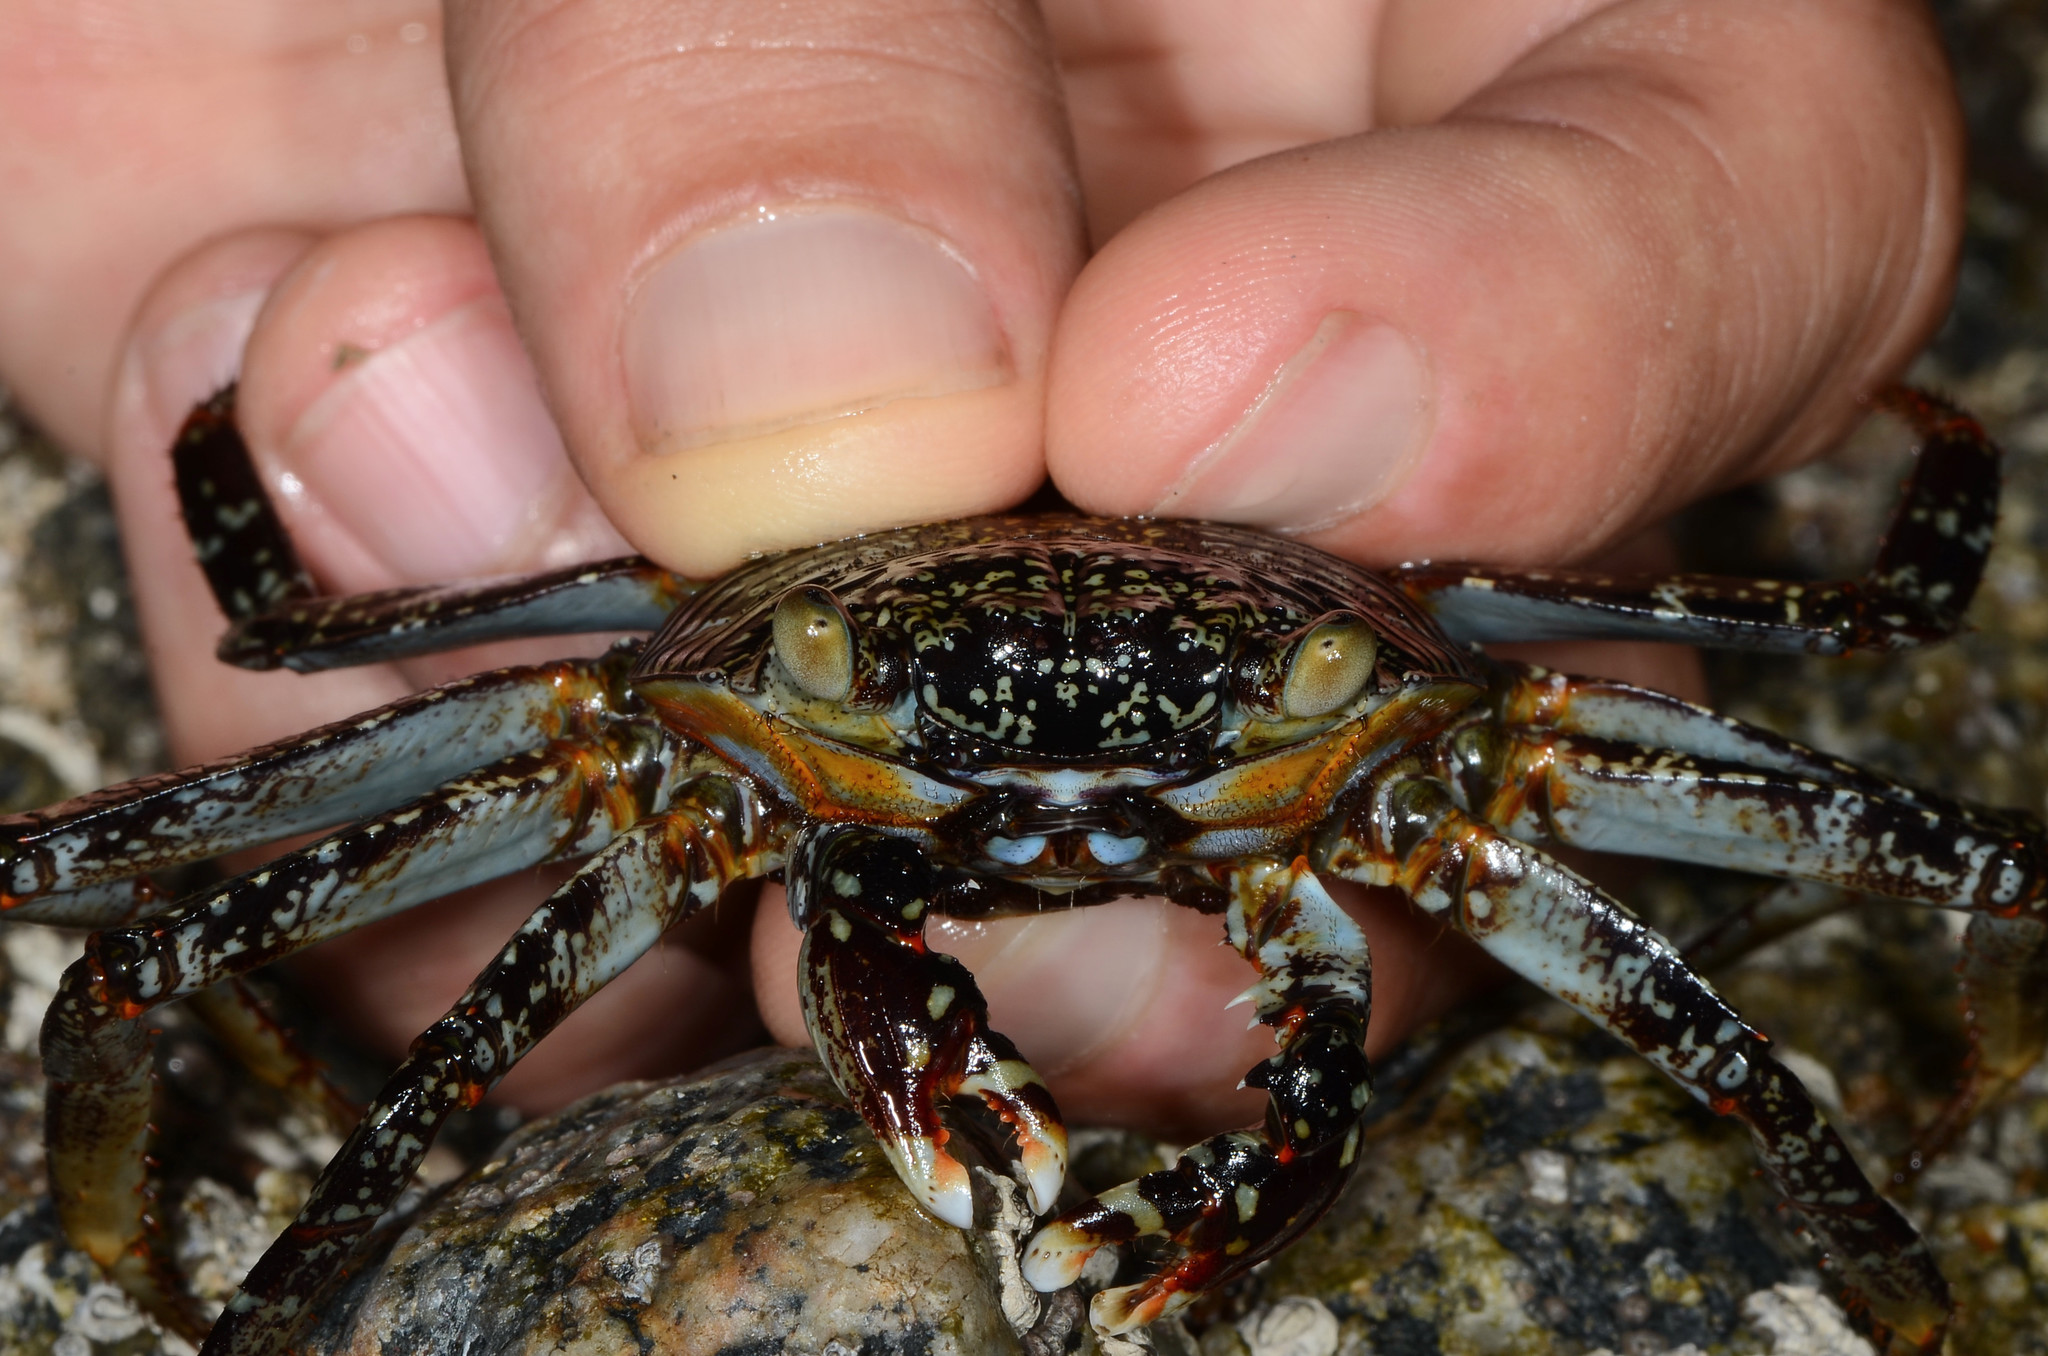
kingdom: Animalia
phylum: Arthropoda
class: Malacostraca
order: Decapoda
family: Grapsidae
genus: Grapsus
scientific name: Grapsus grapsus
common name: Sally lightfoot
